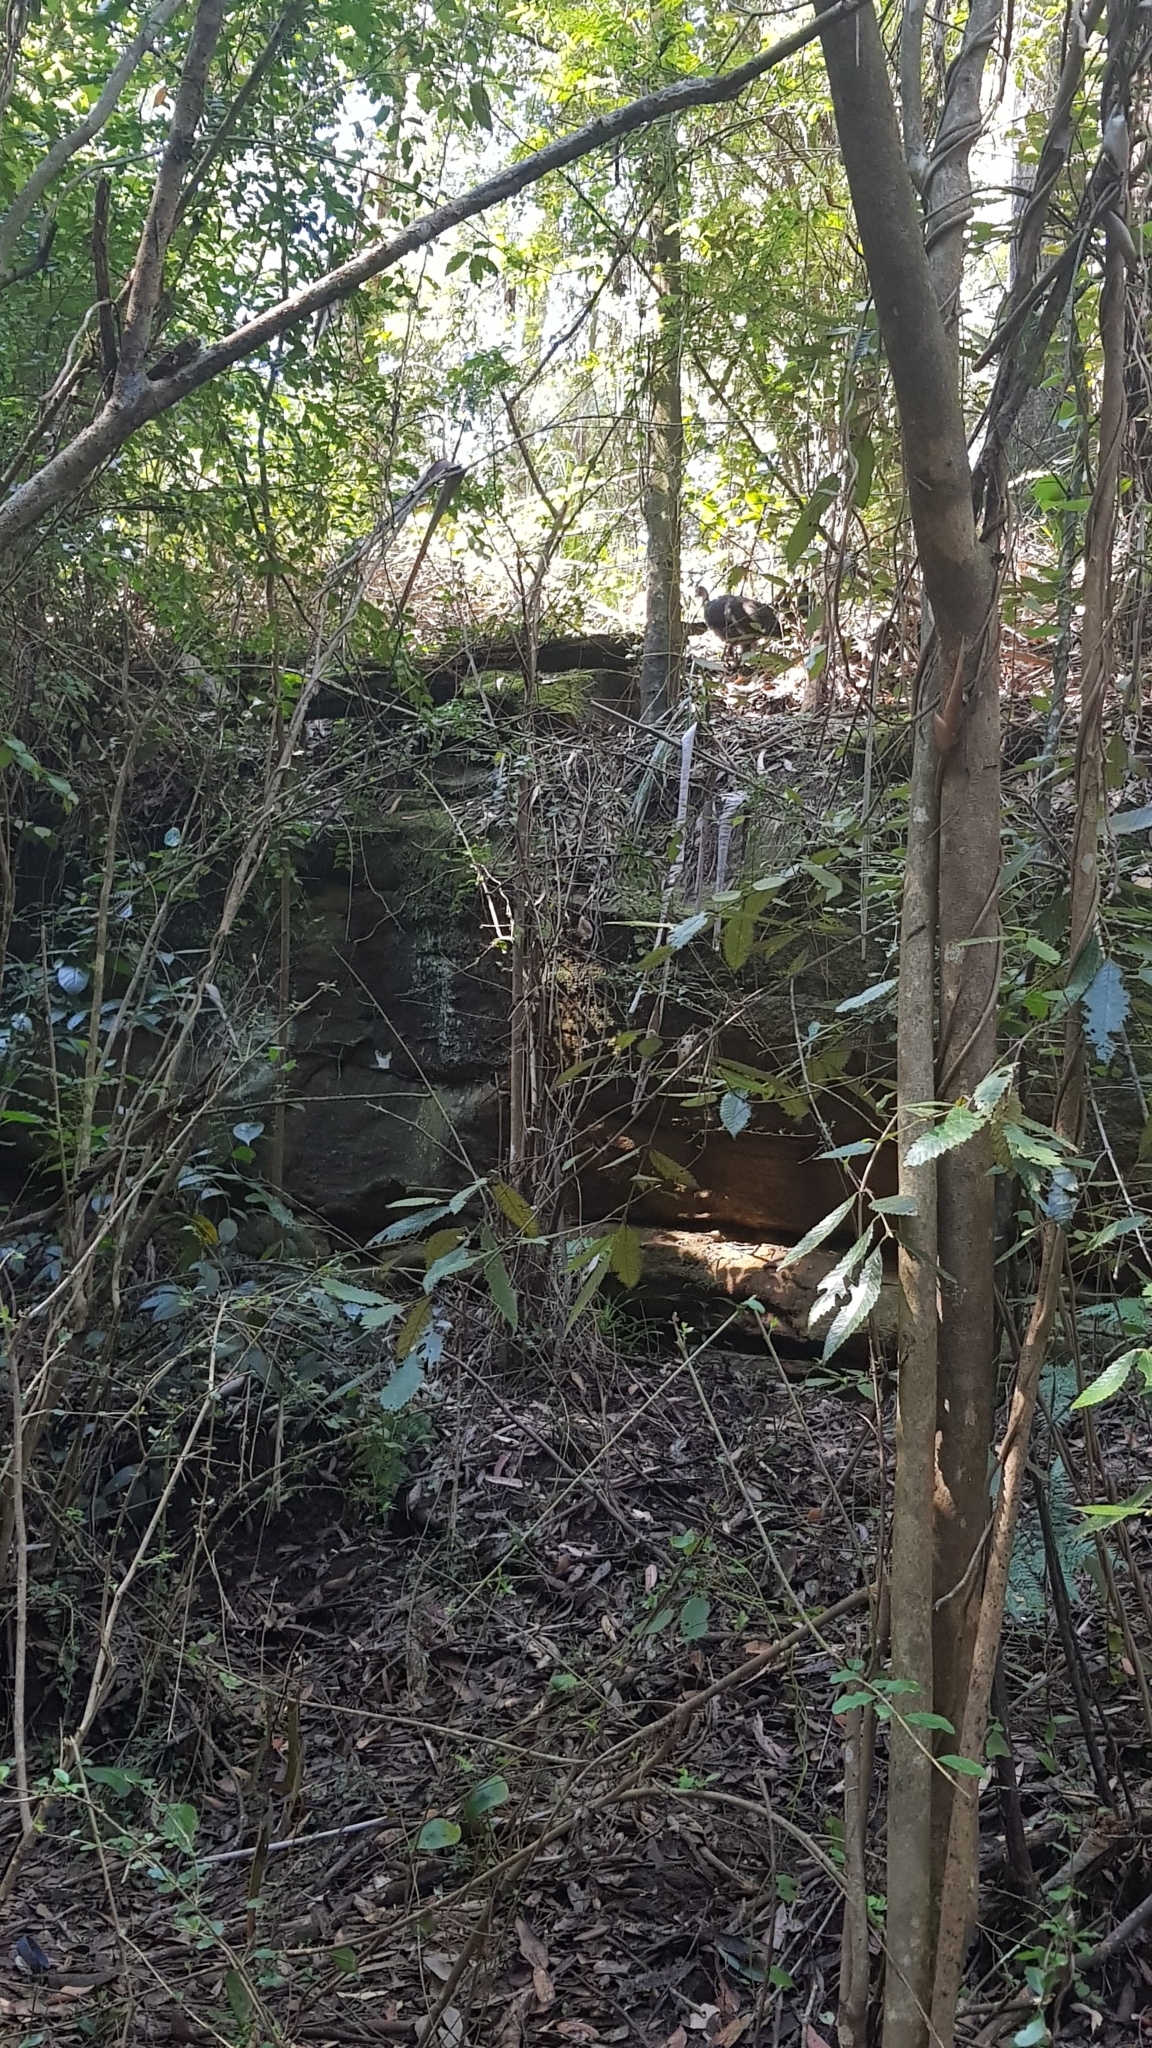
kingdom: Animalia
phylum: Chordata
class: Aves
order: Galliformes
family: Megapodiidae
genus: Alectura
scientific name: Alectura lathami
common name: Australian brushturkey
